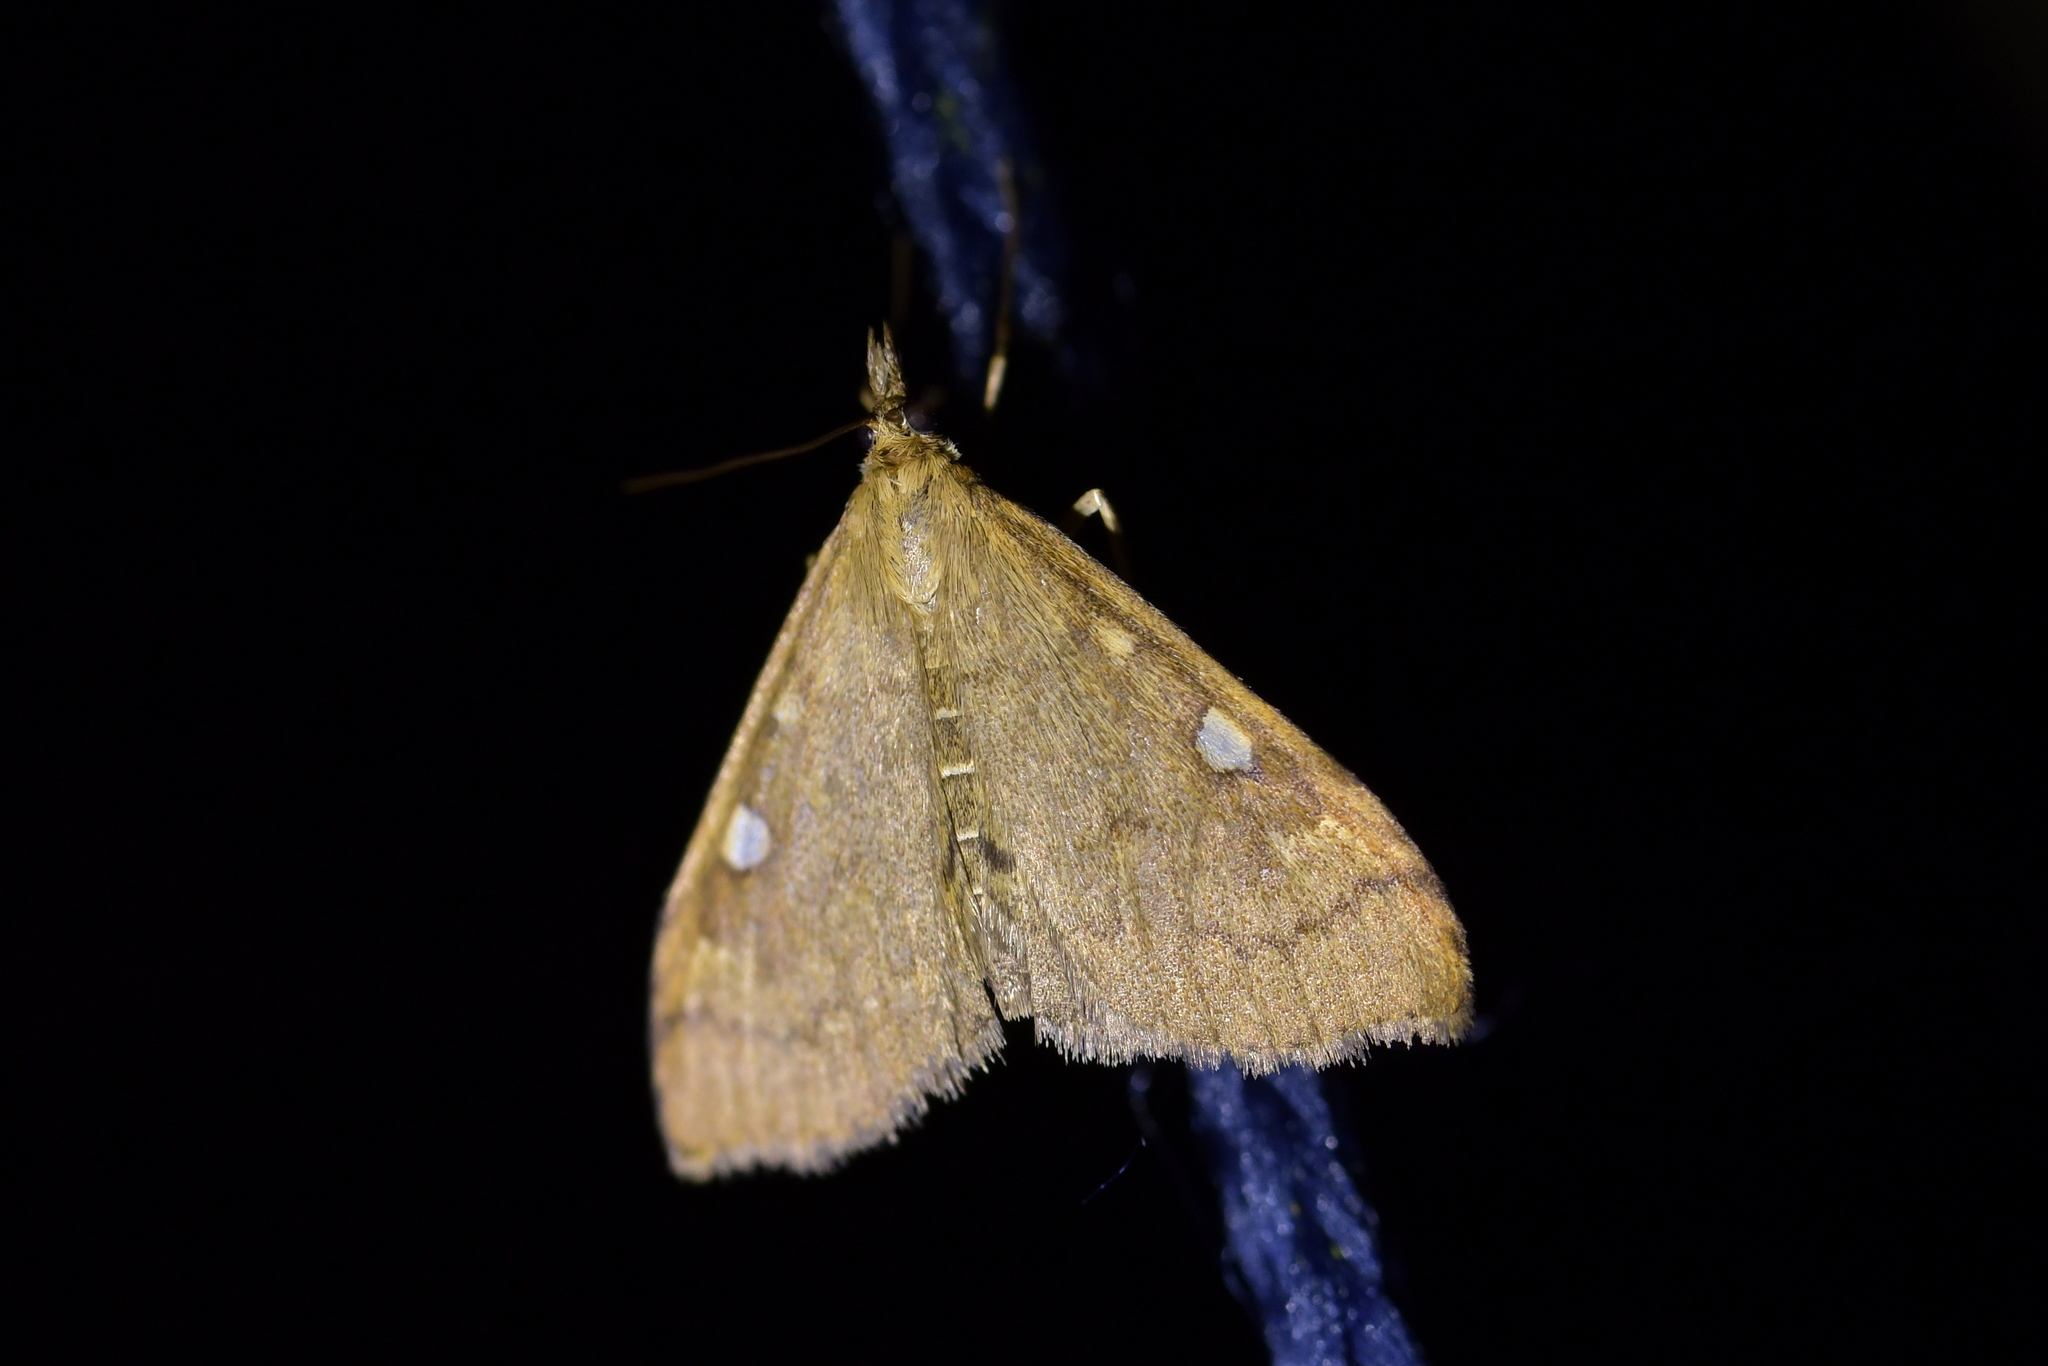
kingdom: Animalia
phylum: Arthropoda
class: Insecta
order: Lepidoptera
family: Crambidae
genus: Udea
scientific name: Udea marmarina
